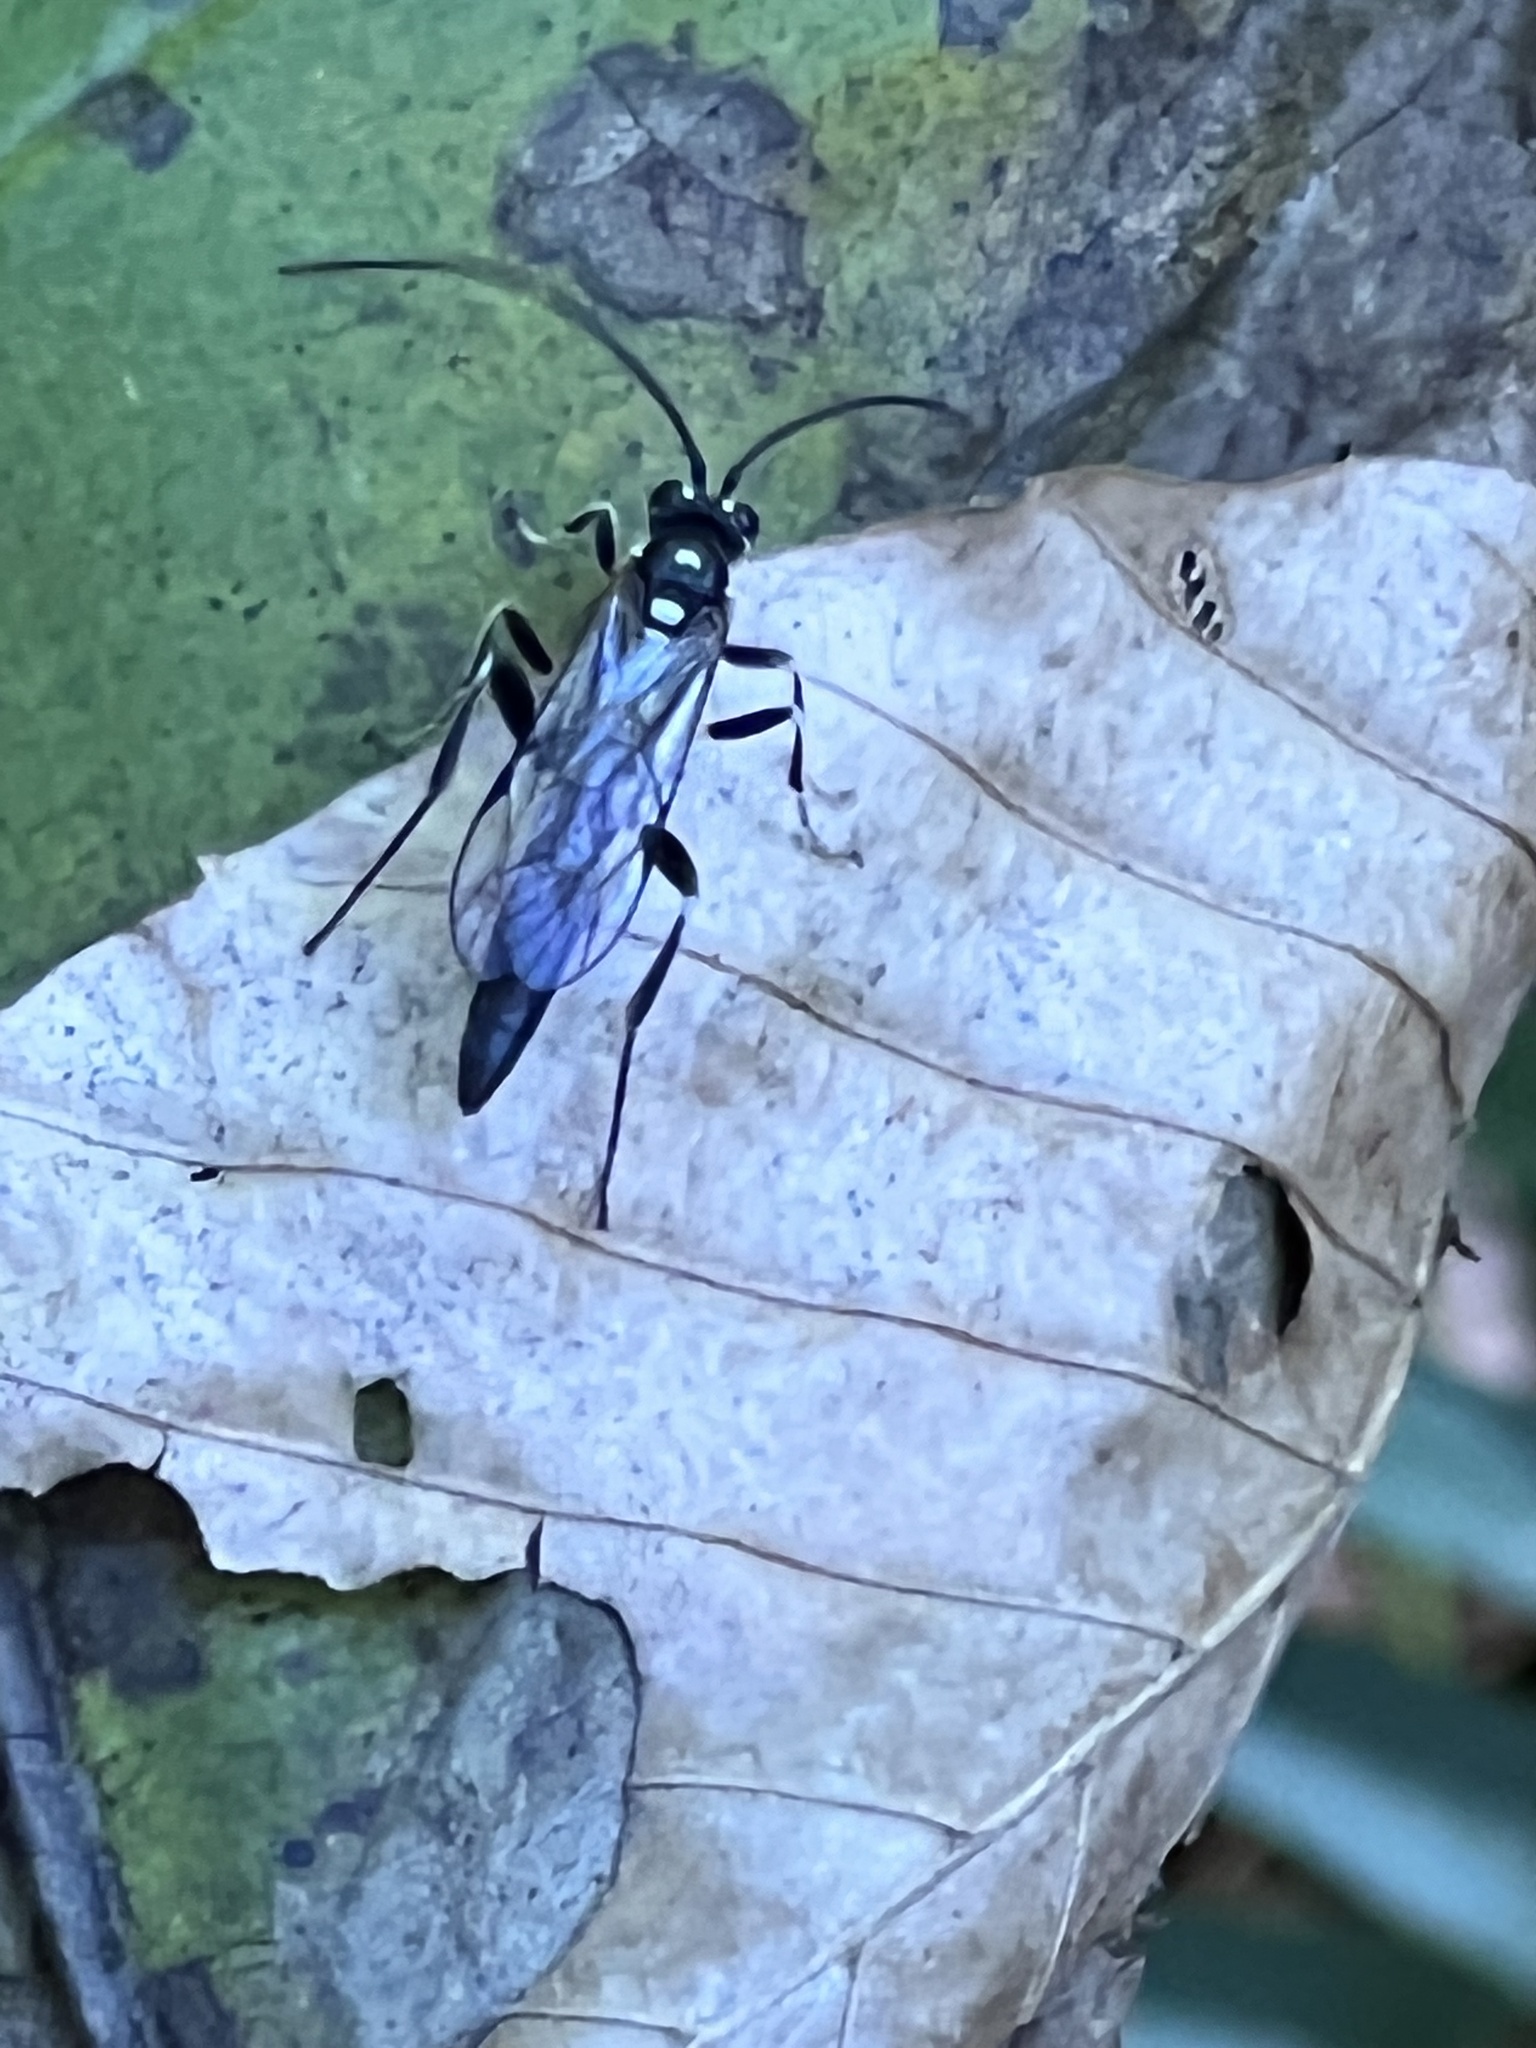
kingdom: Animalia
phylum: Arthropoda
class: Insecta
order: Hymenoptera
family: Ichneumonidae
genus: Cratichneumon
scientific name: Cratichneumon sublatus
